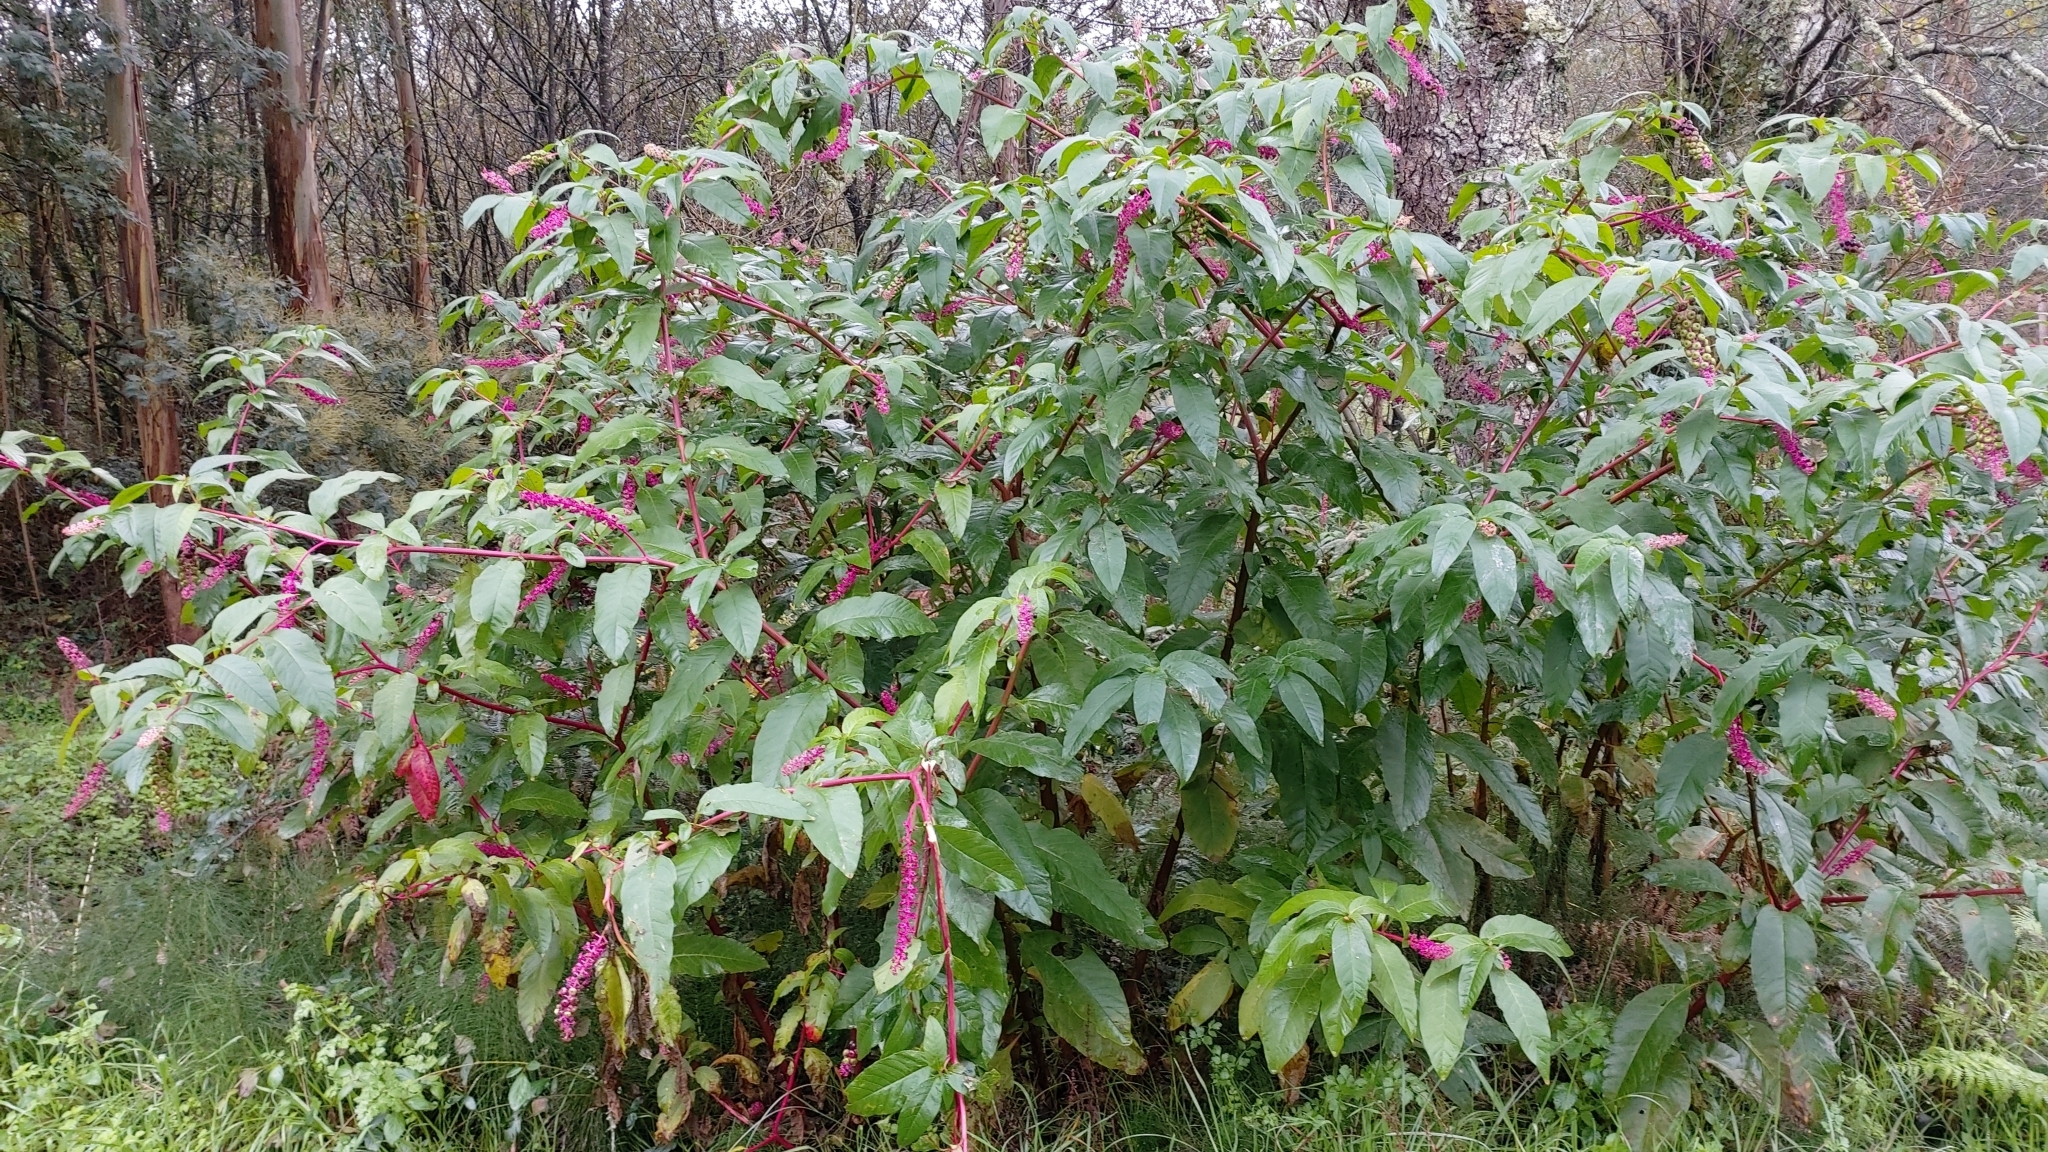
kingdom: Plantae
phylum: Tracheophyta
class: Magnoliopsida
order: Caryophyllales
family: Phytolaccaceae
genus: Phytolacca
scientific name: Phytolacca americana
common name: American pokeweed
